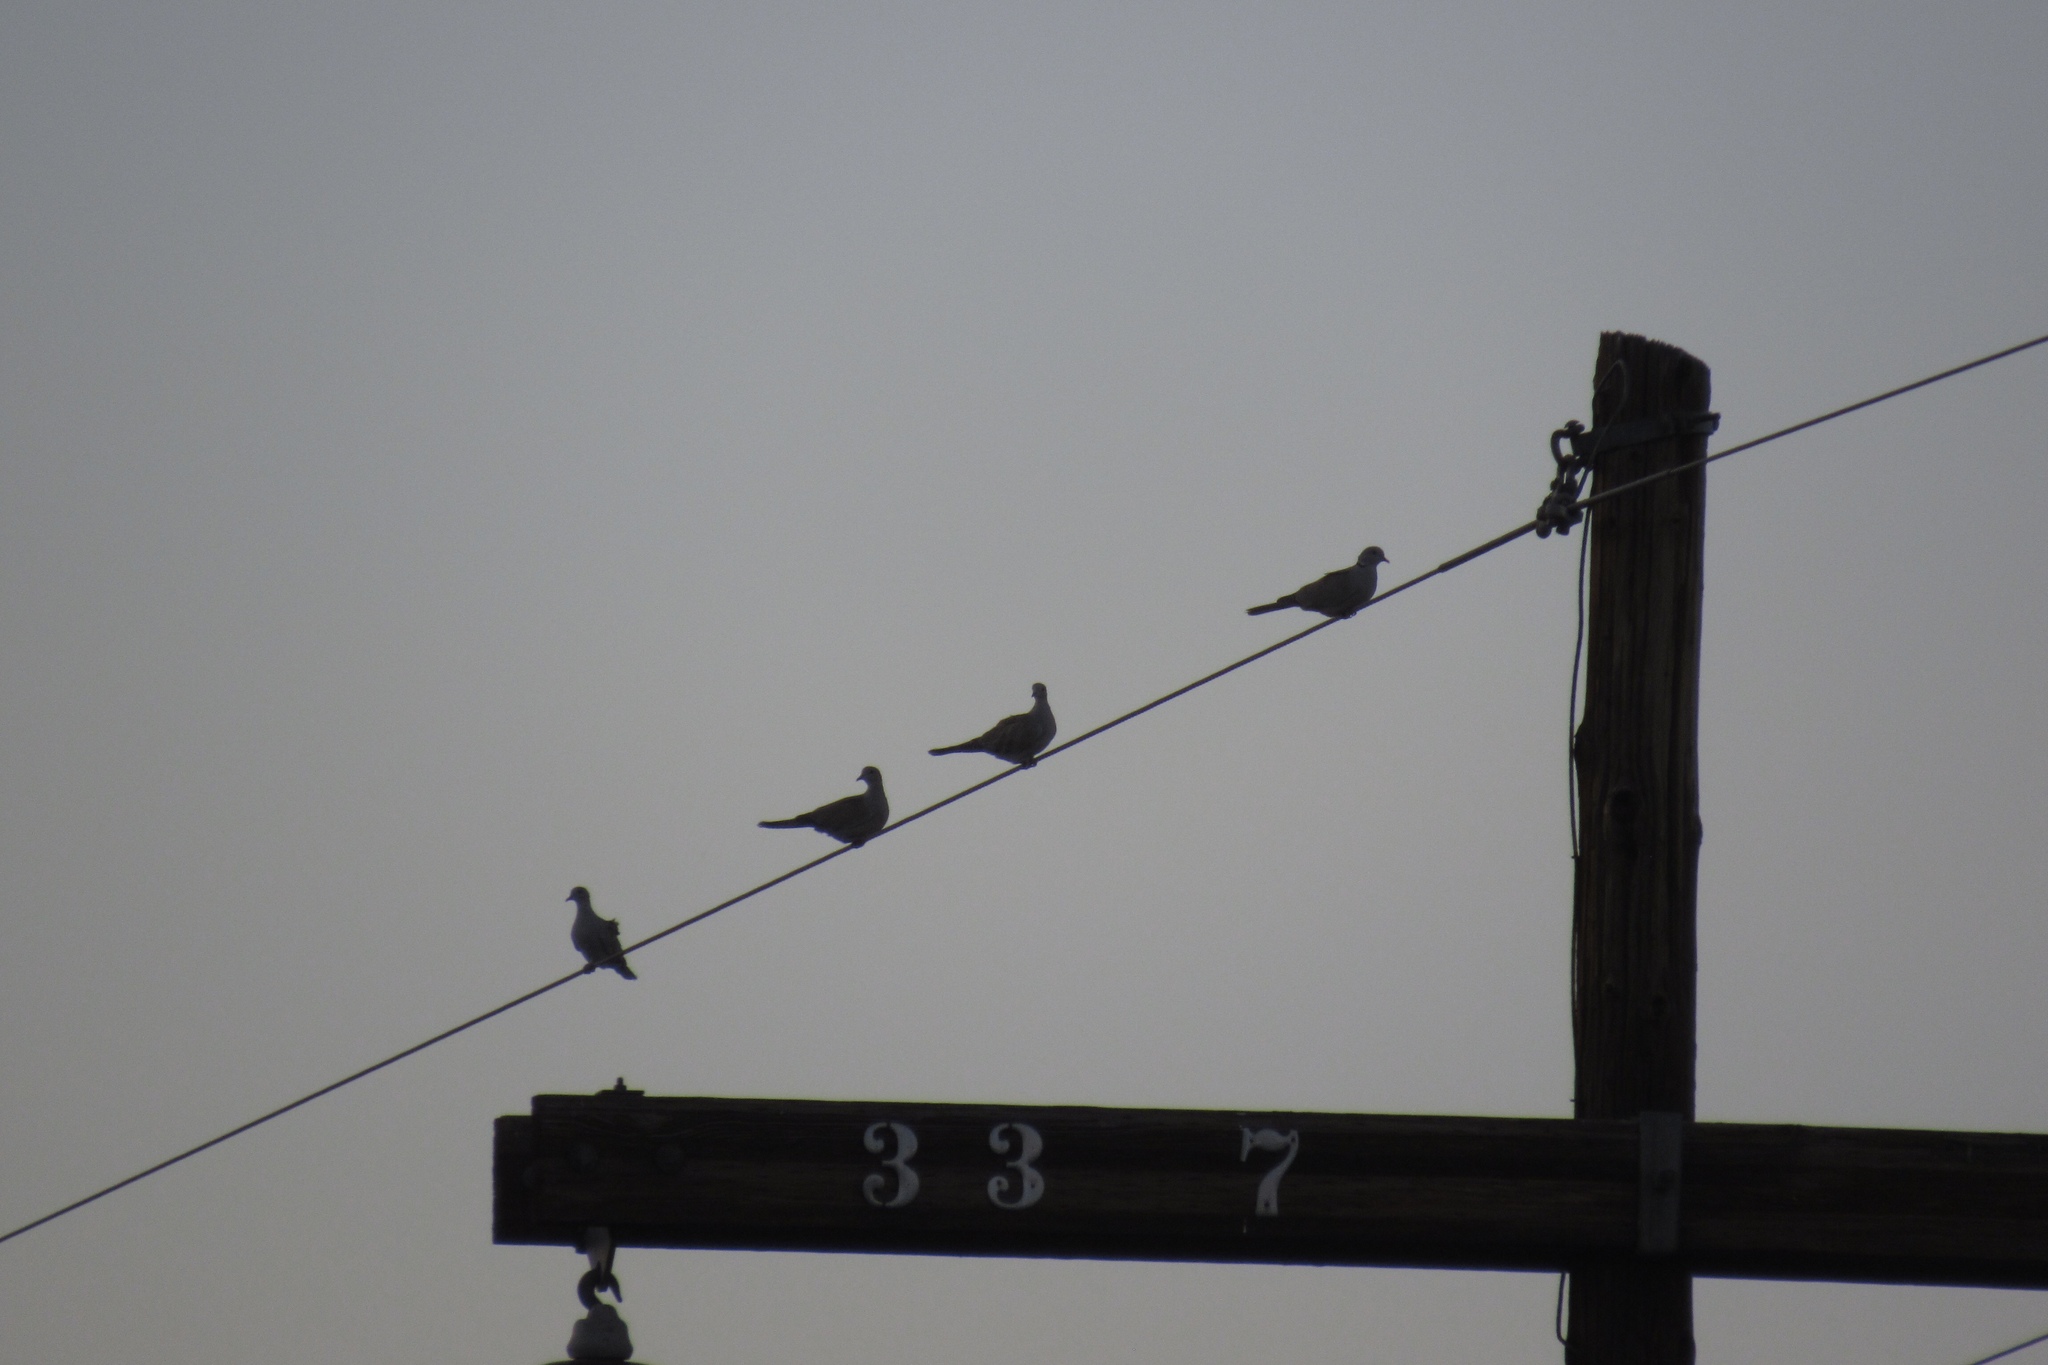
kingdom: Animalia
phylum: Chordata
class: Aves
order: Columbiformes
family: Columbidae
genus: Streptopelia
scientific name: Streptopelia decaocto
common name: Eurasian collared dove
